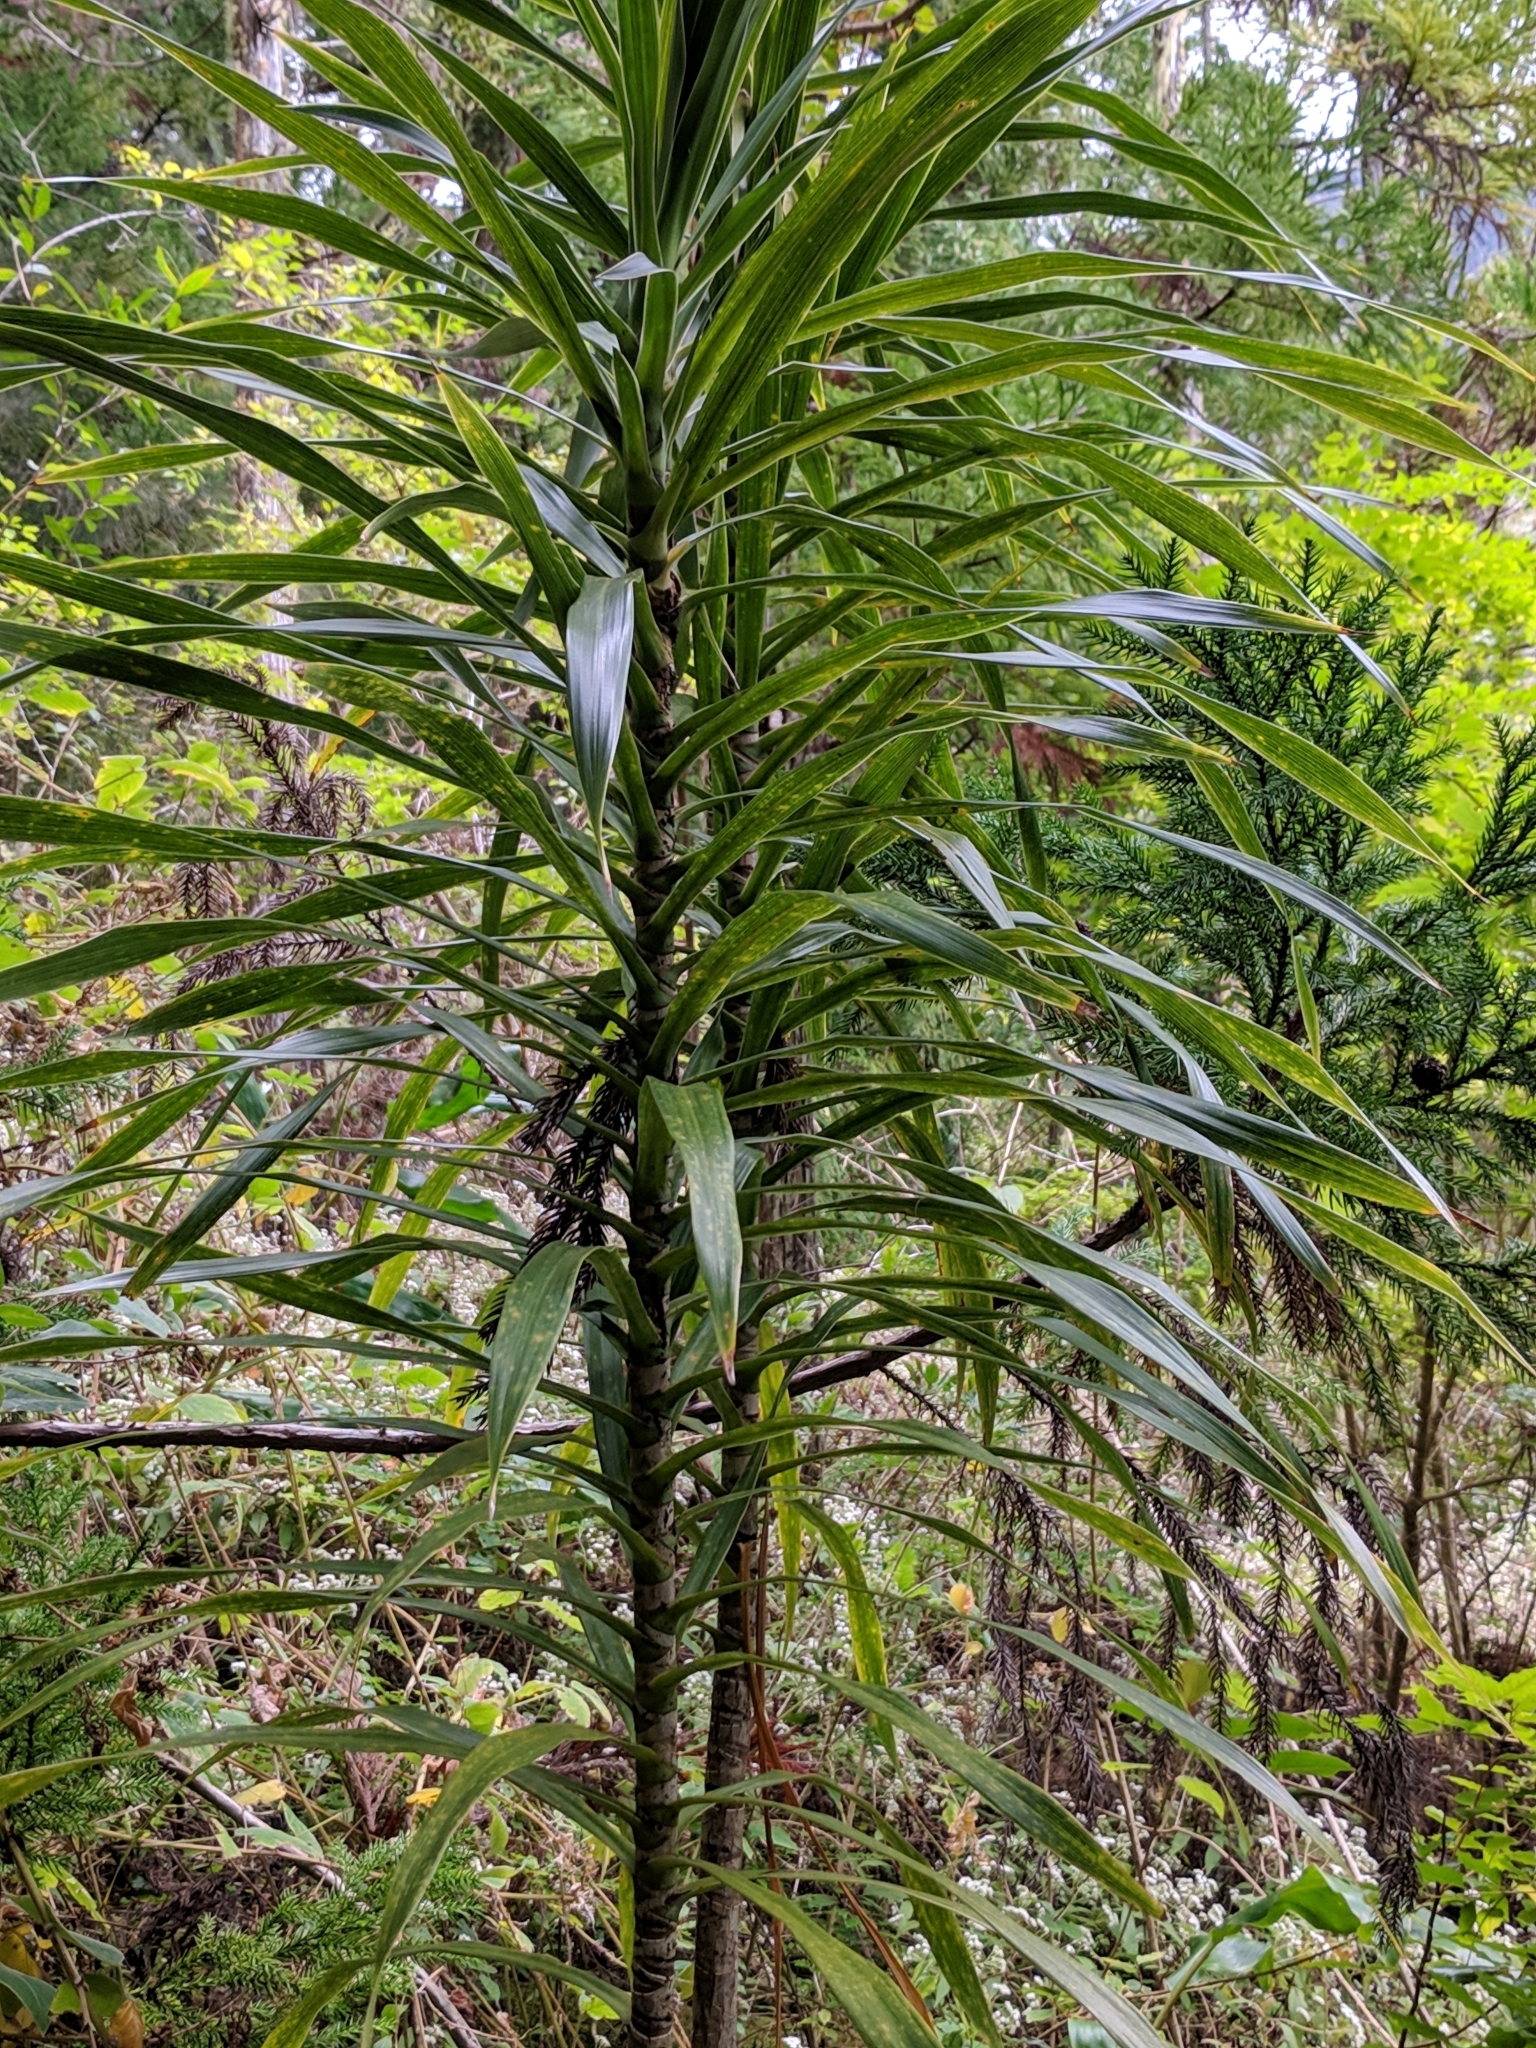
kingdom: Plantae
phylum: Tracheophyta
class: Liliopsida
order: Asparagales
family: Asparagaceae
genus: Dracaena
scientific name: Dracaena reflexa
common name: Song-of-india
